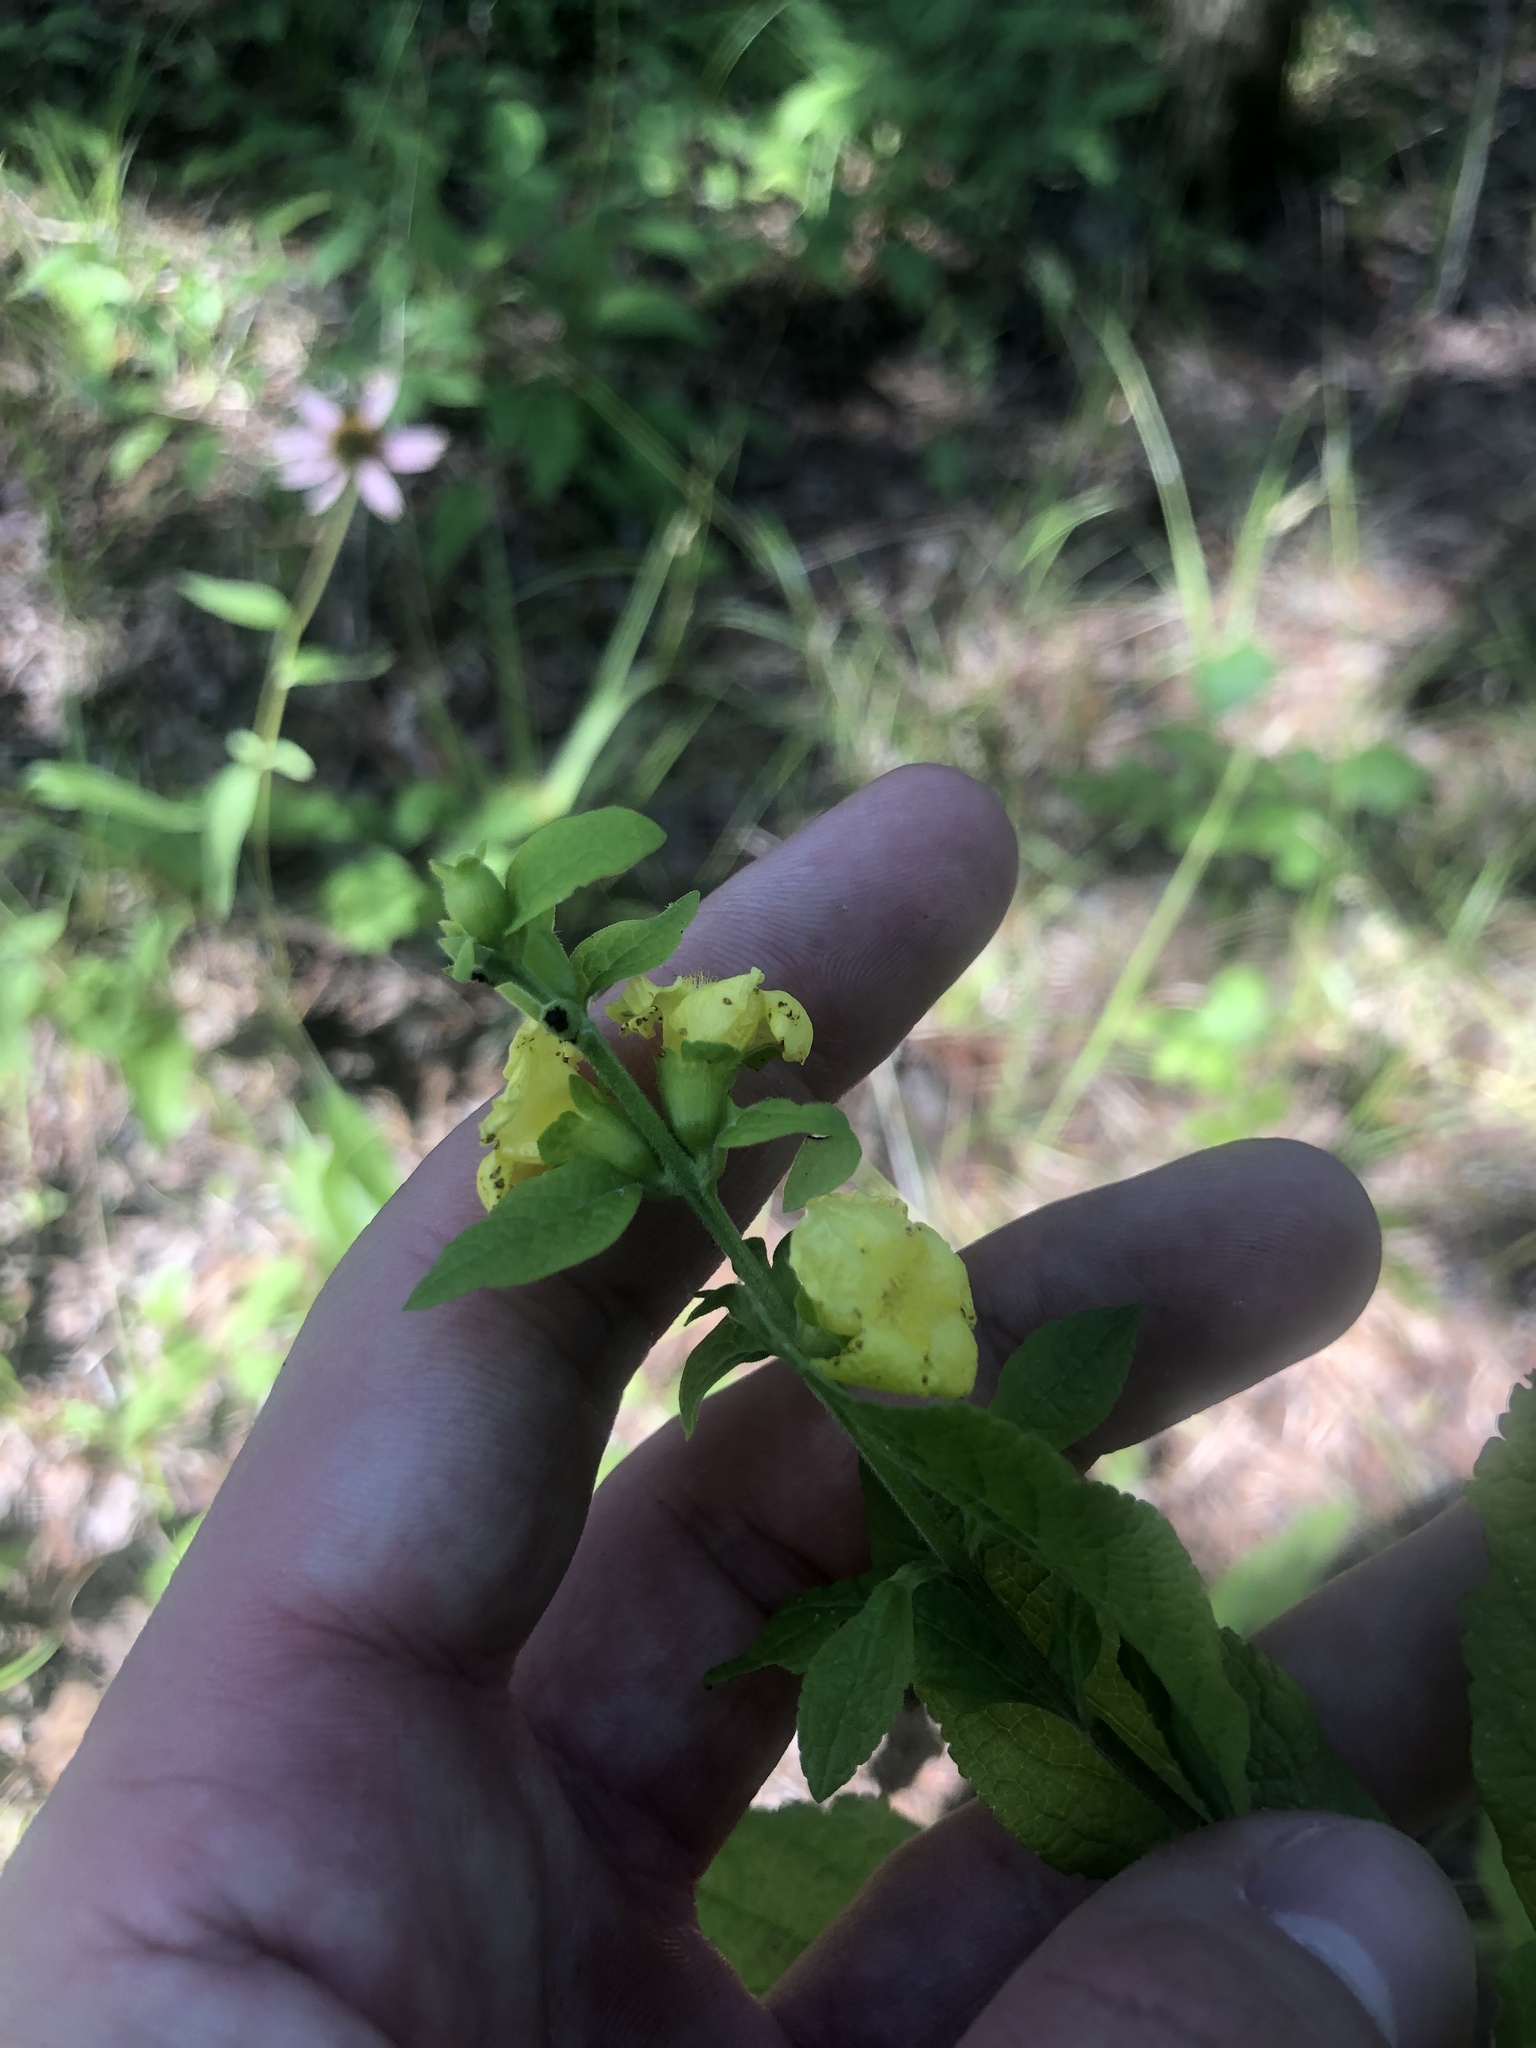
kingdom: Plantae
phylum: Tracheophyta
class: Magnoliopsida
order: Lamiales
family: Orobanchaceae
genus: Dasistoma
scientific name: Dasistoma macrophyllum
